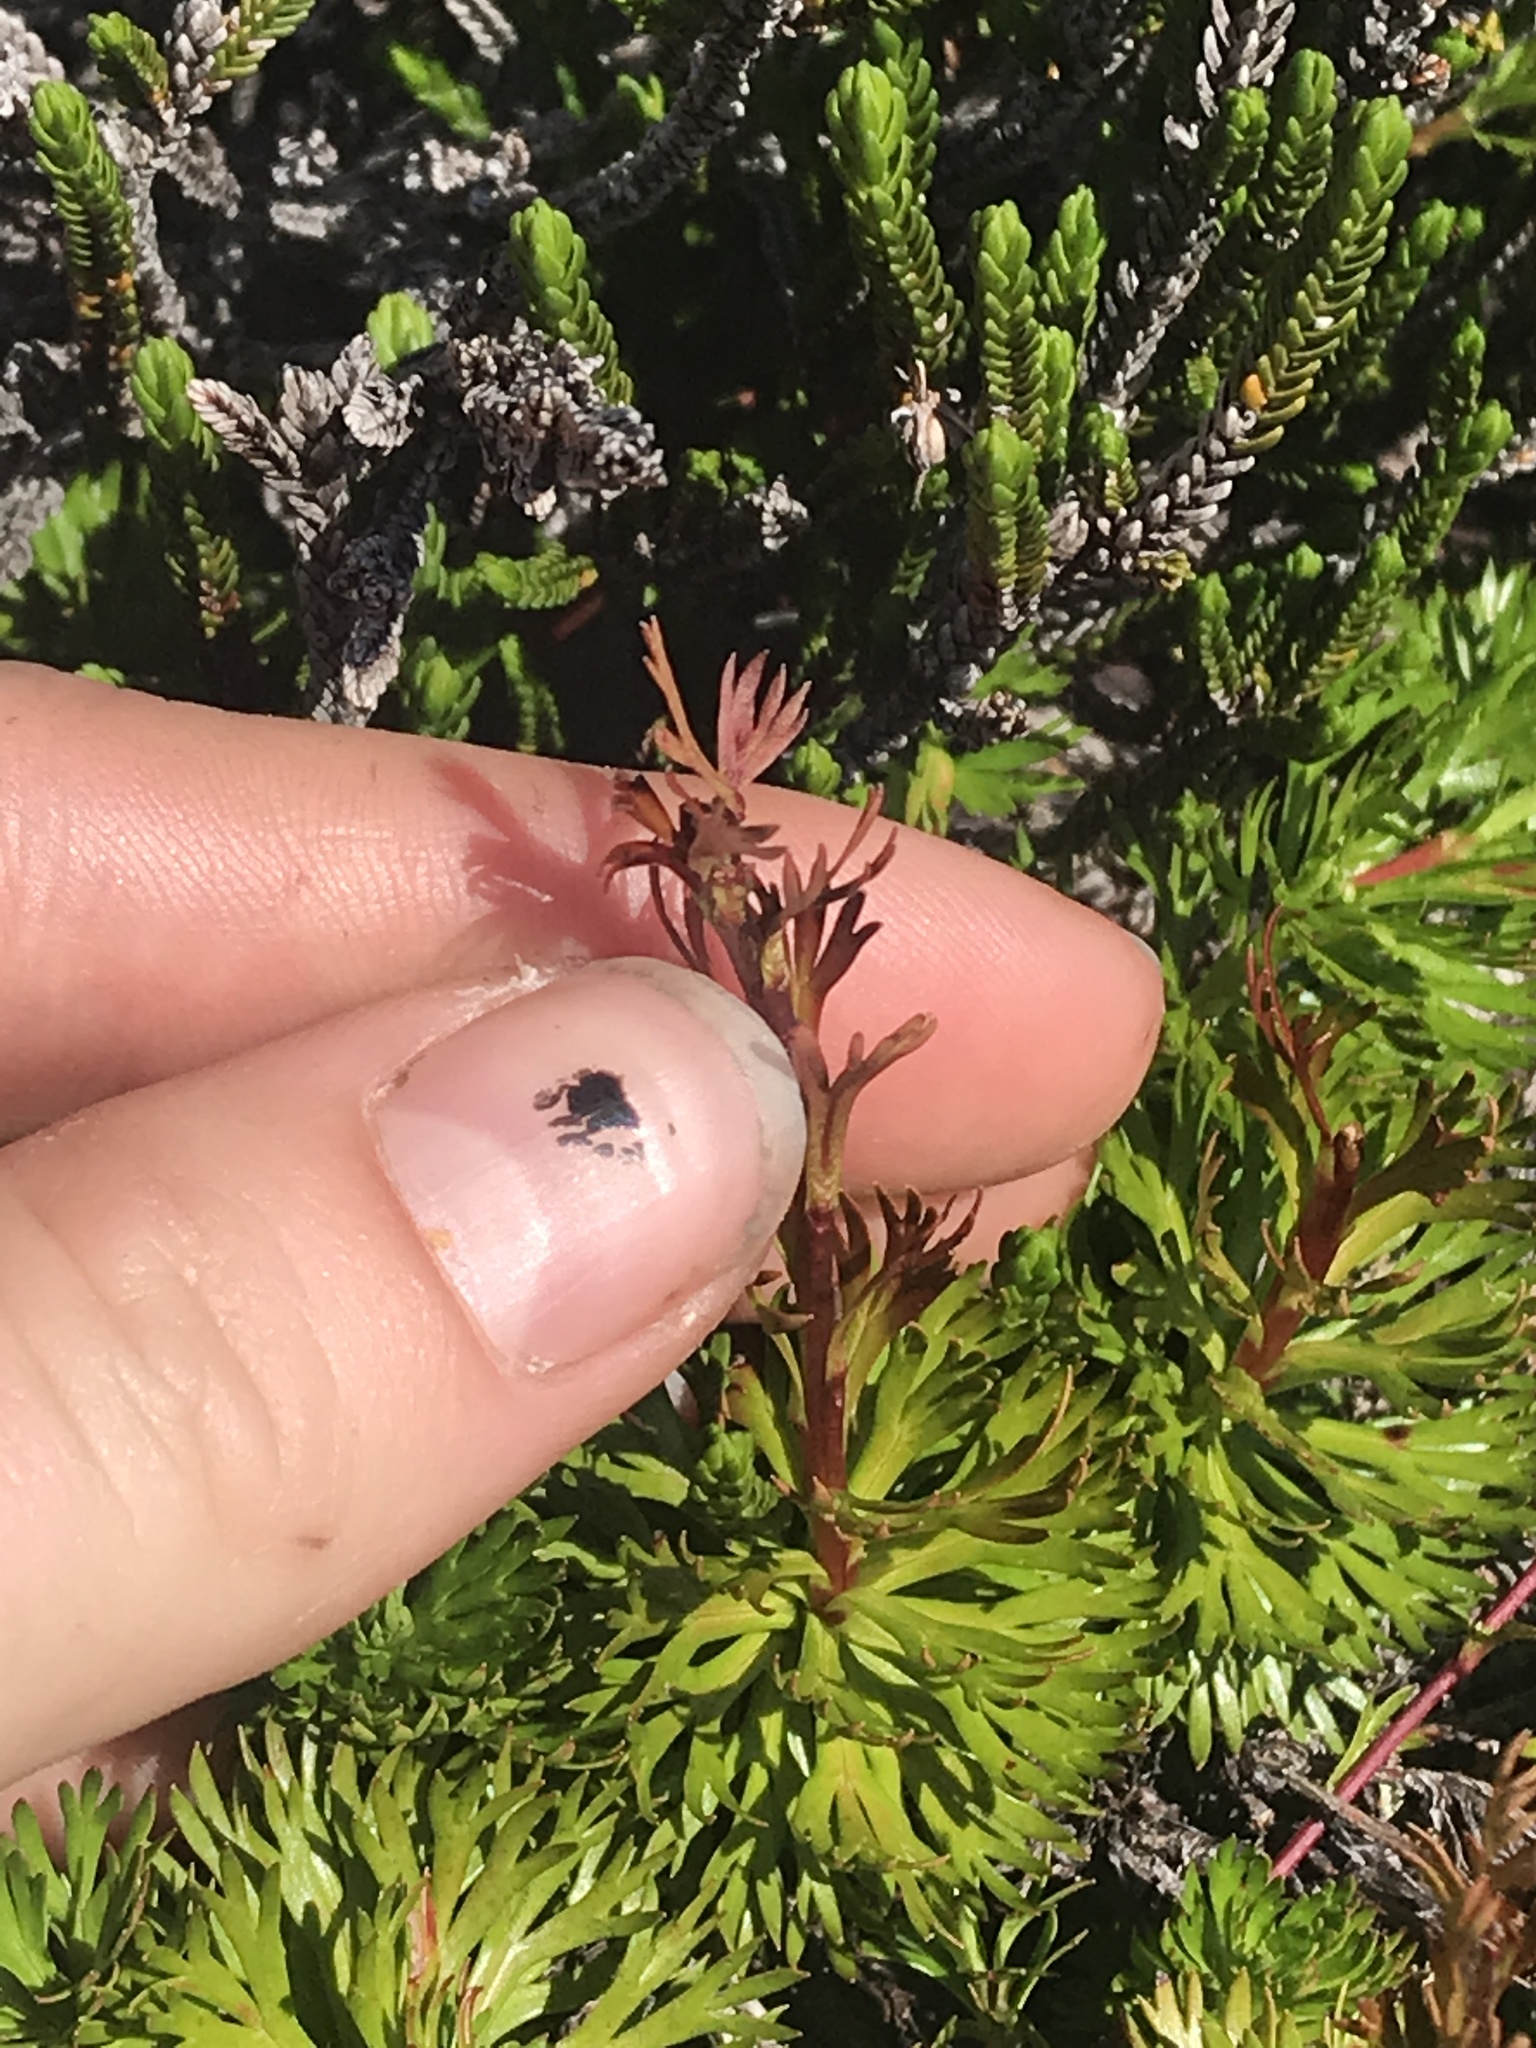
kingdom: Plantae
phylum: Tracheophyta
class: Magnoliopsida
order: Rosales
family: Rosaceae
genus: Luetkea
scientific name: Luetkea pectinata
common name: Partridgefoot
